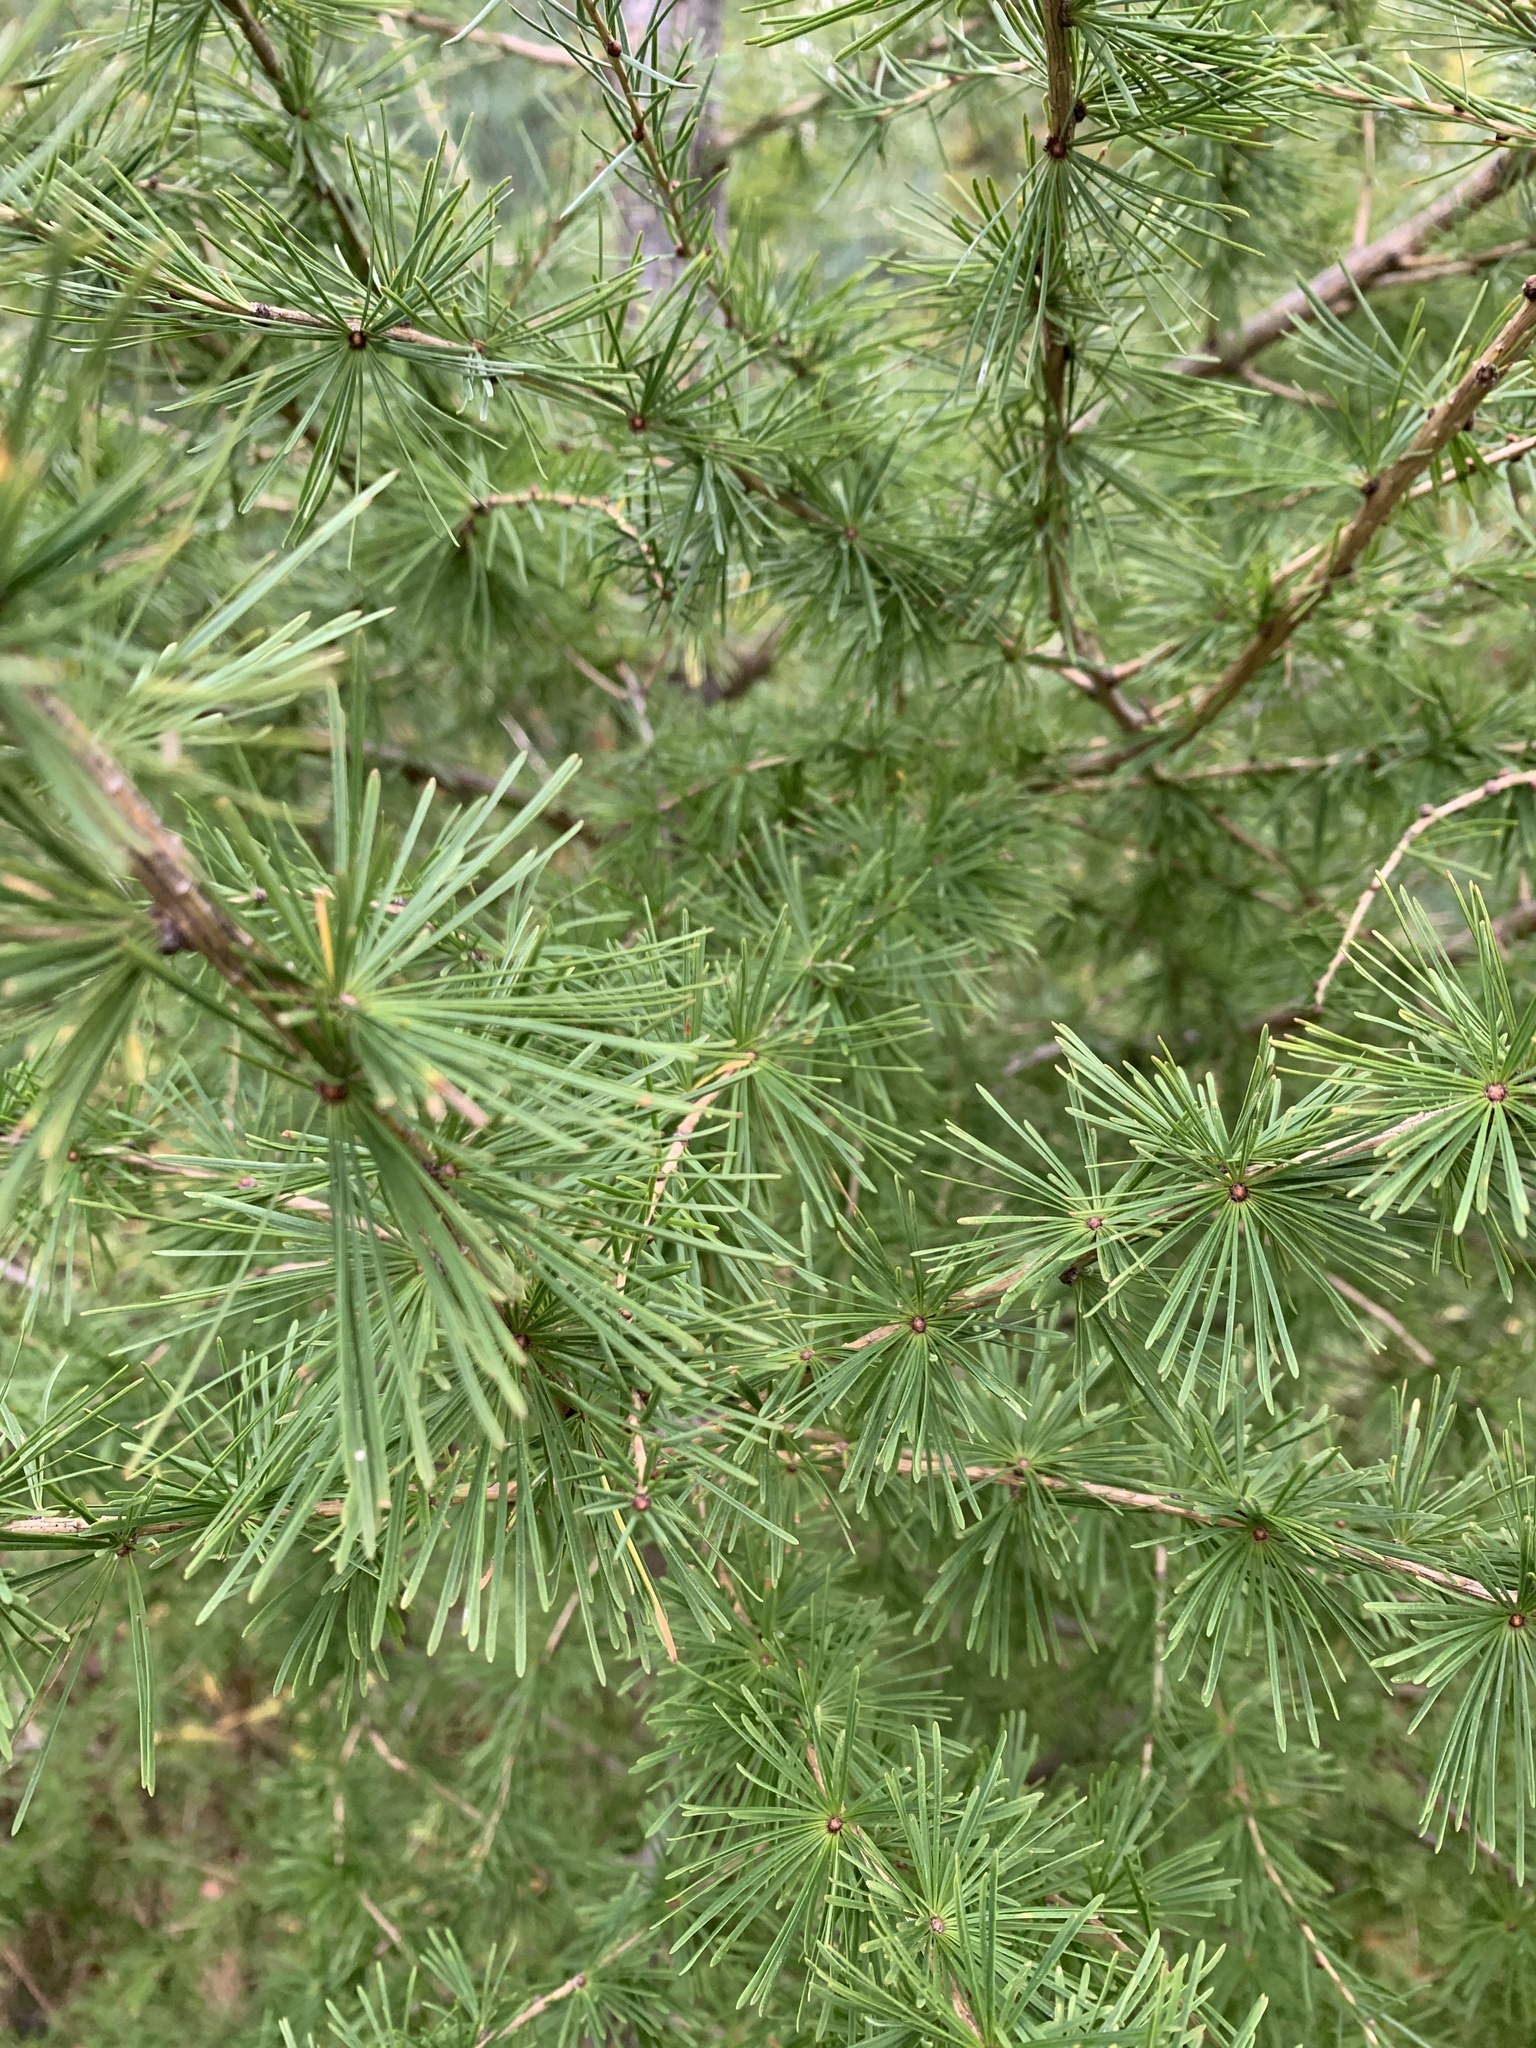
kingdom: Plantae
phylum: Tracheophyta
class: Pinopsida
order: Pinales
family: Pinaceae
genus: Larix
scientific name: Larix laricina
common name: American larch
